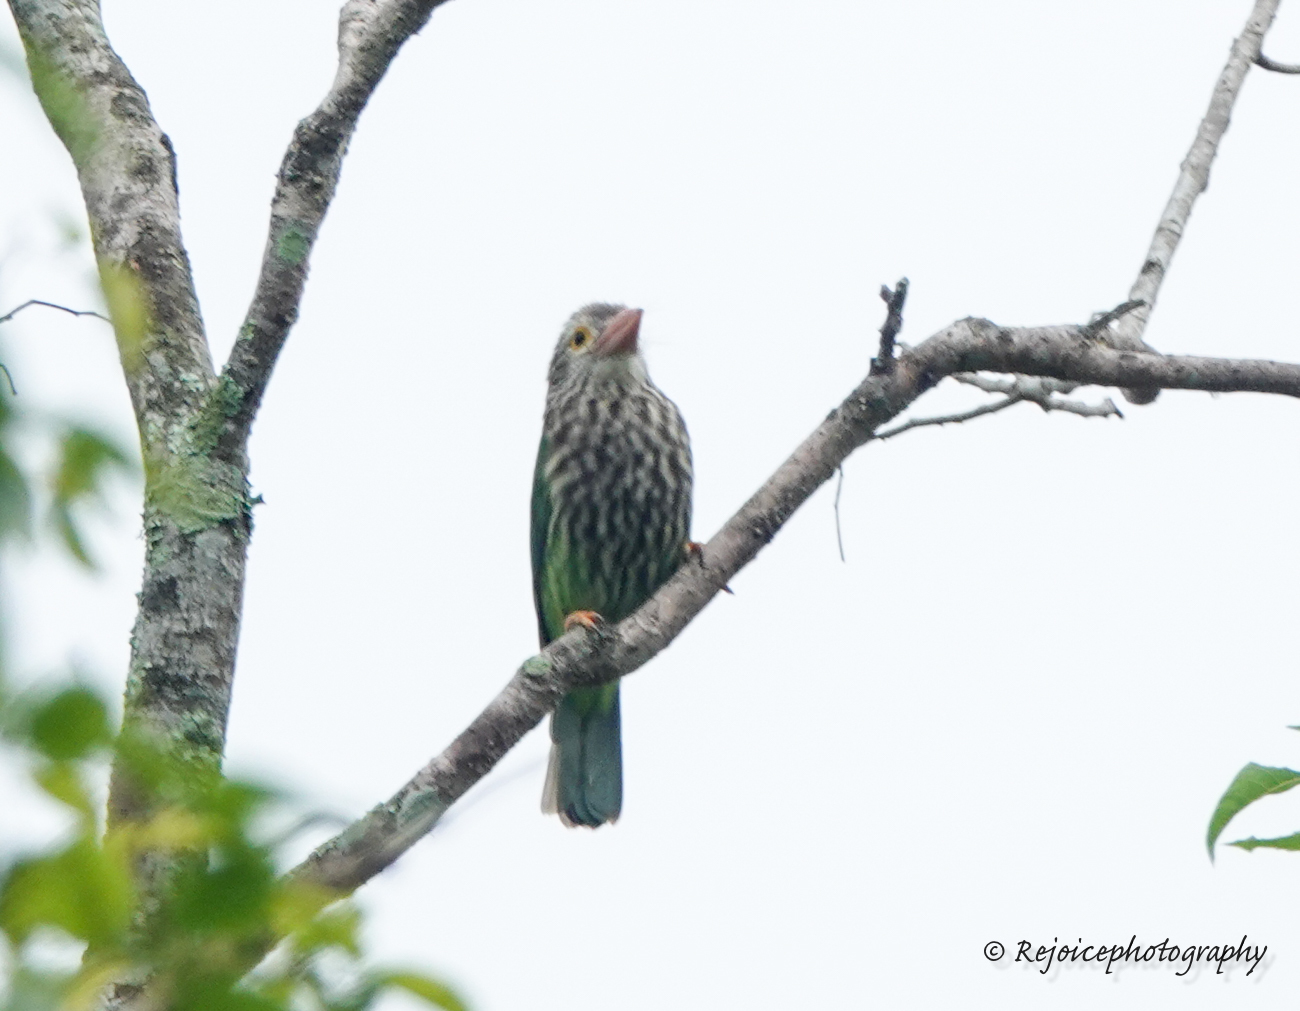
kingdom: Animalia
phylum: Chordata
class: Aves
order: Piciformes
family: Megalaimidae
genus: Psilopogon
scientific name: Psilopogon lineatus
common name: Lineated barbet
